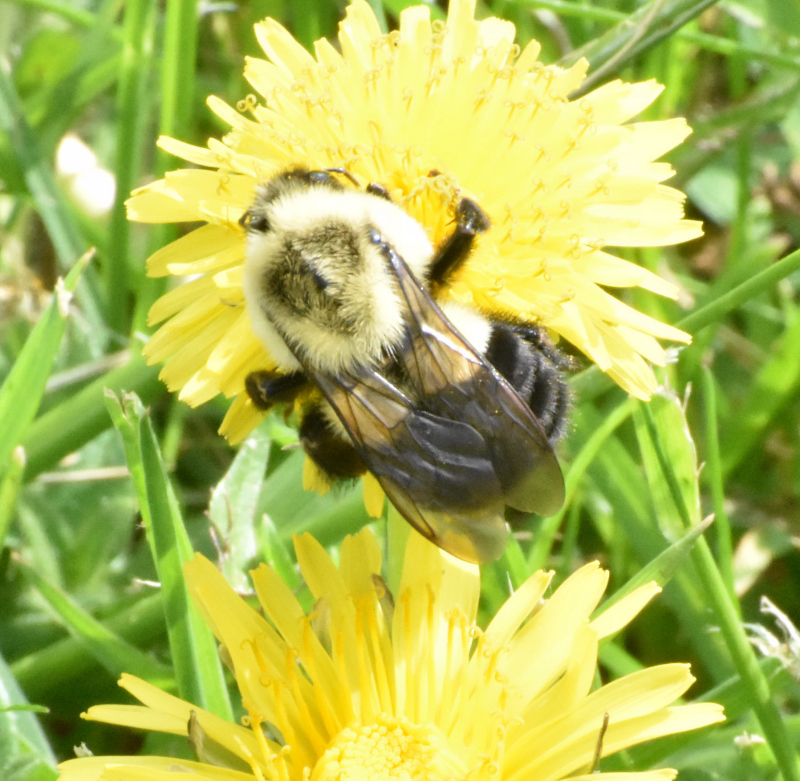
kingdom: Animalia
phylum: Arthropoda
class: Insecta
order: Hymenoptera
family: Apidae
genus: Bombus
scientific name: Bombus impatiens
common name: Common eastern bumble bee
